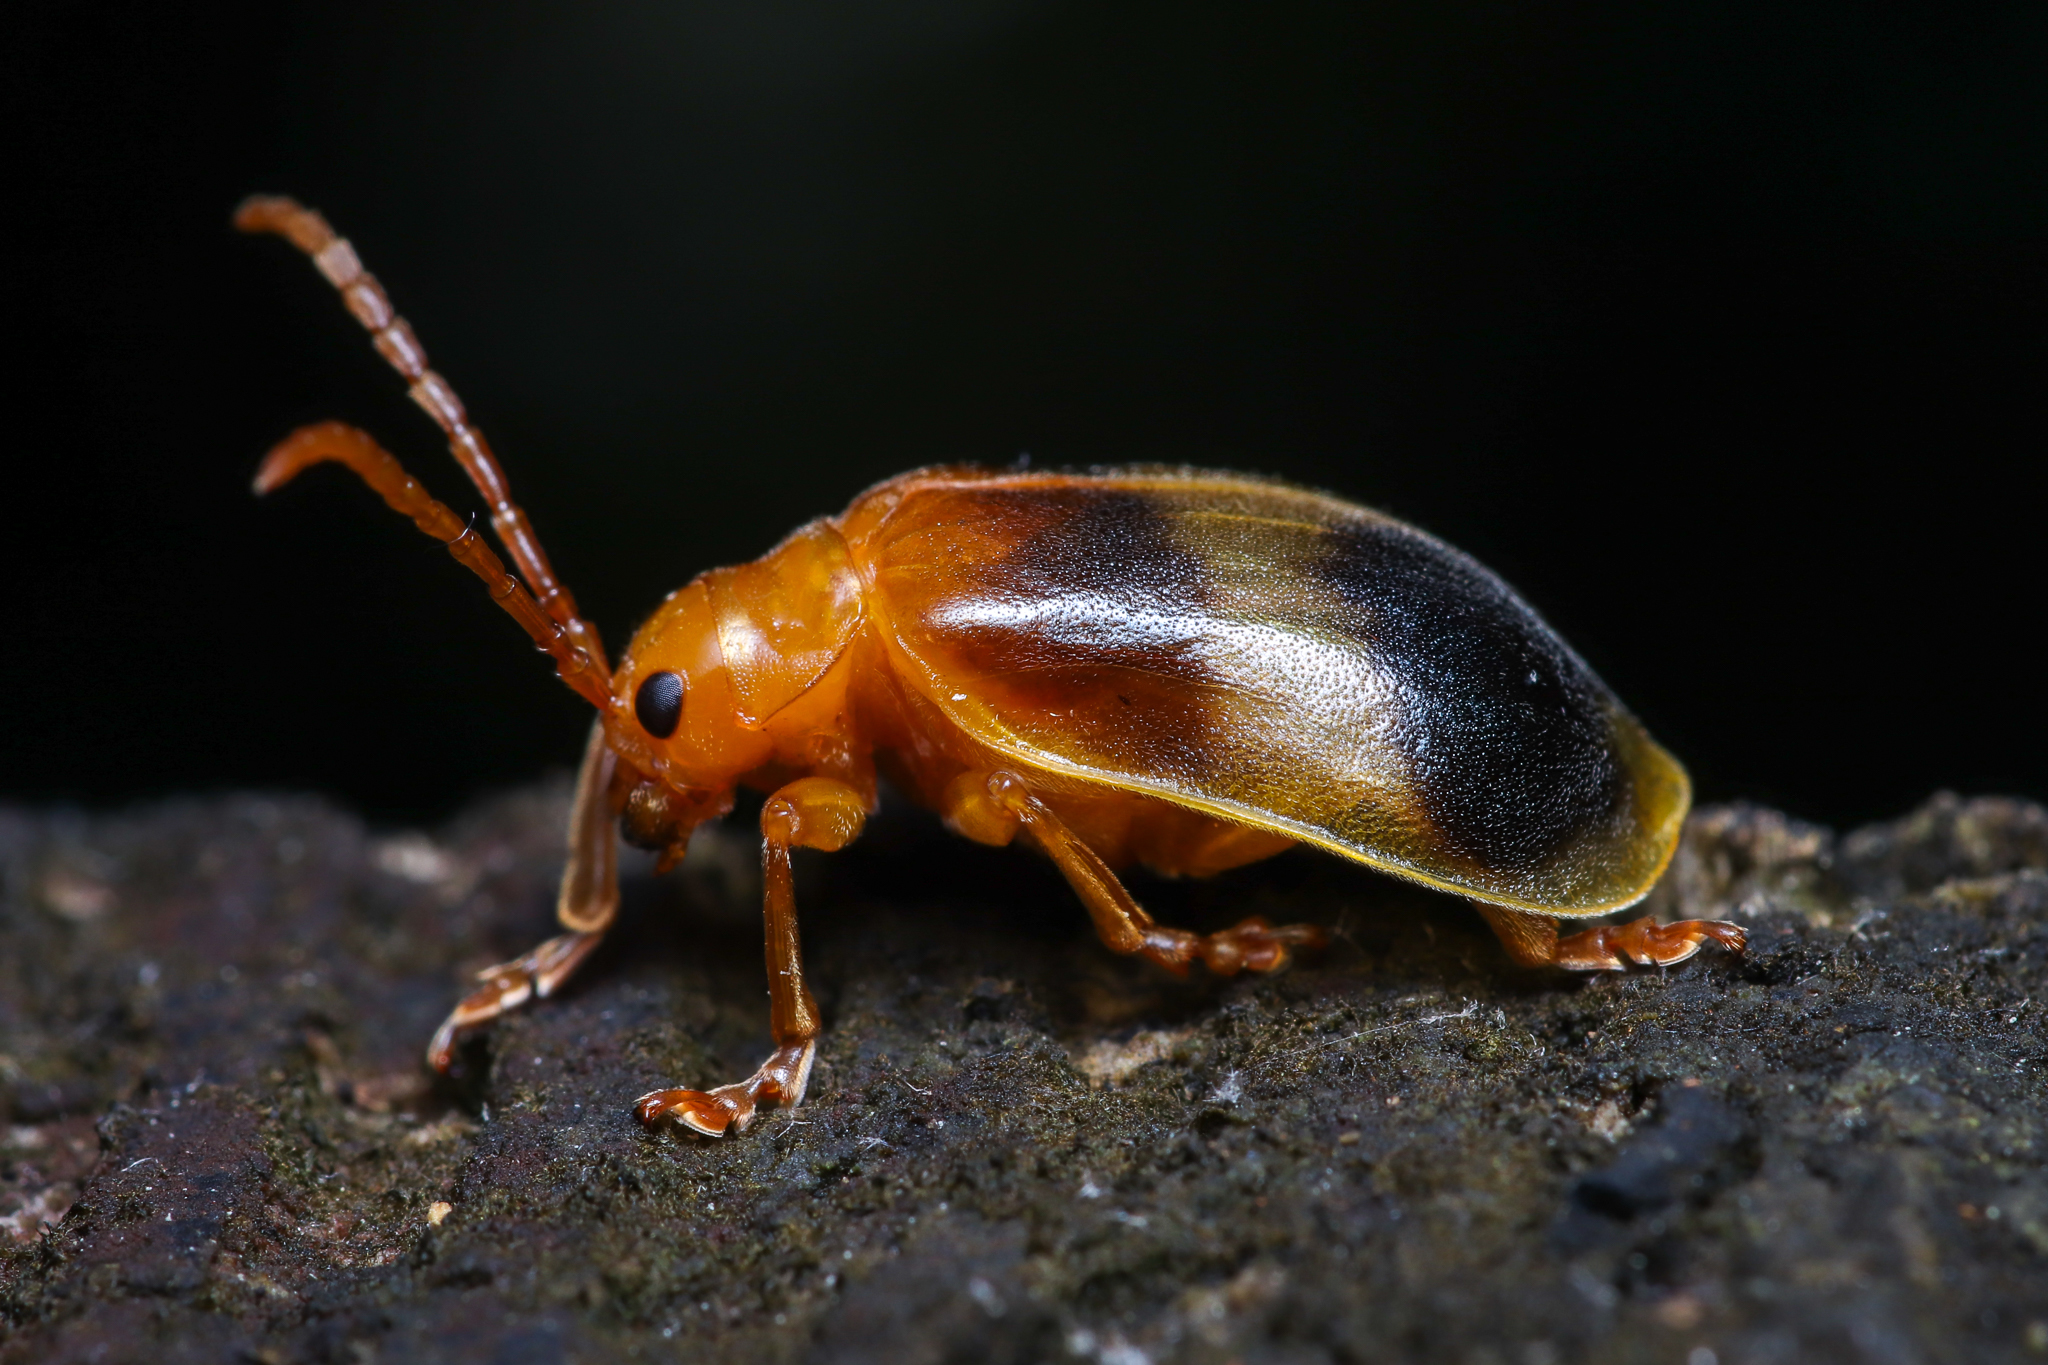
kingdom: Animalia
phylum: Arthropoda
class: Insecta
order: Coleoptera
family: Chrysomelidae
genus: Monocesta
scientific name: Monocesta coryli
